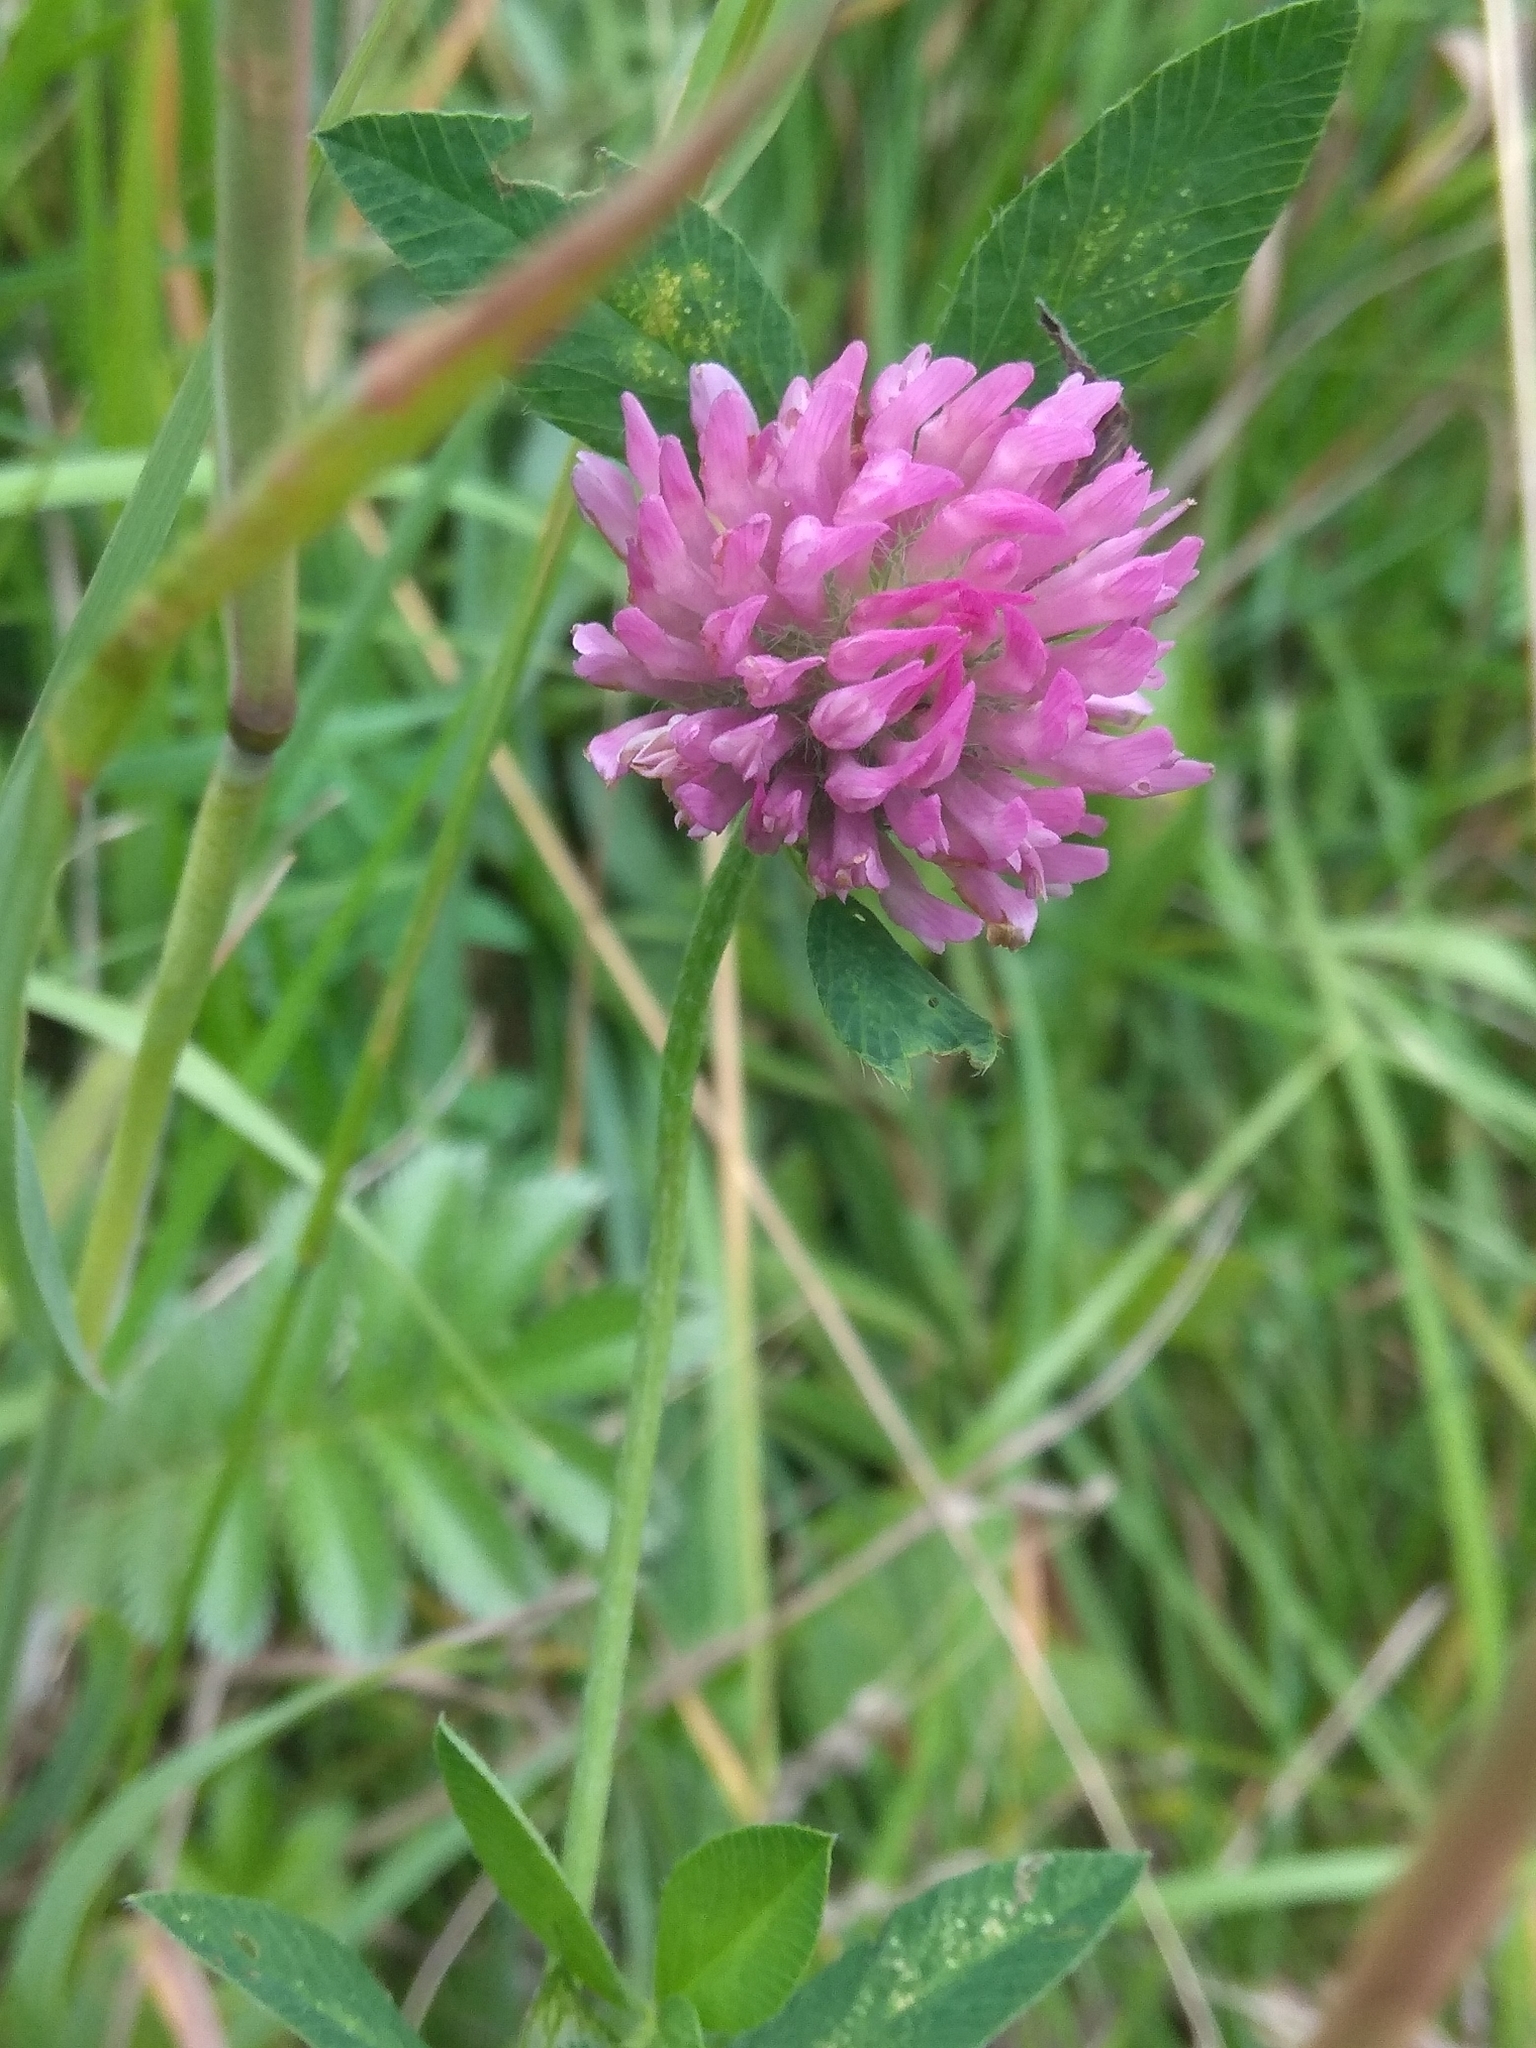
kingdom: Plantae
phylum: Tracheophyta
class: Magnoliopsida
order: Fabales
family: Fabaceae
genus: Trifolium
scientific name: Trifolium pratense
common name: Red clover
